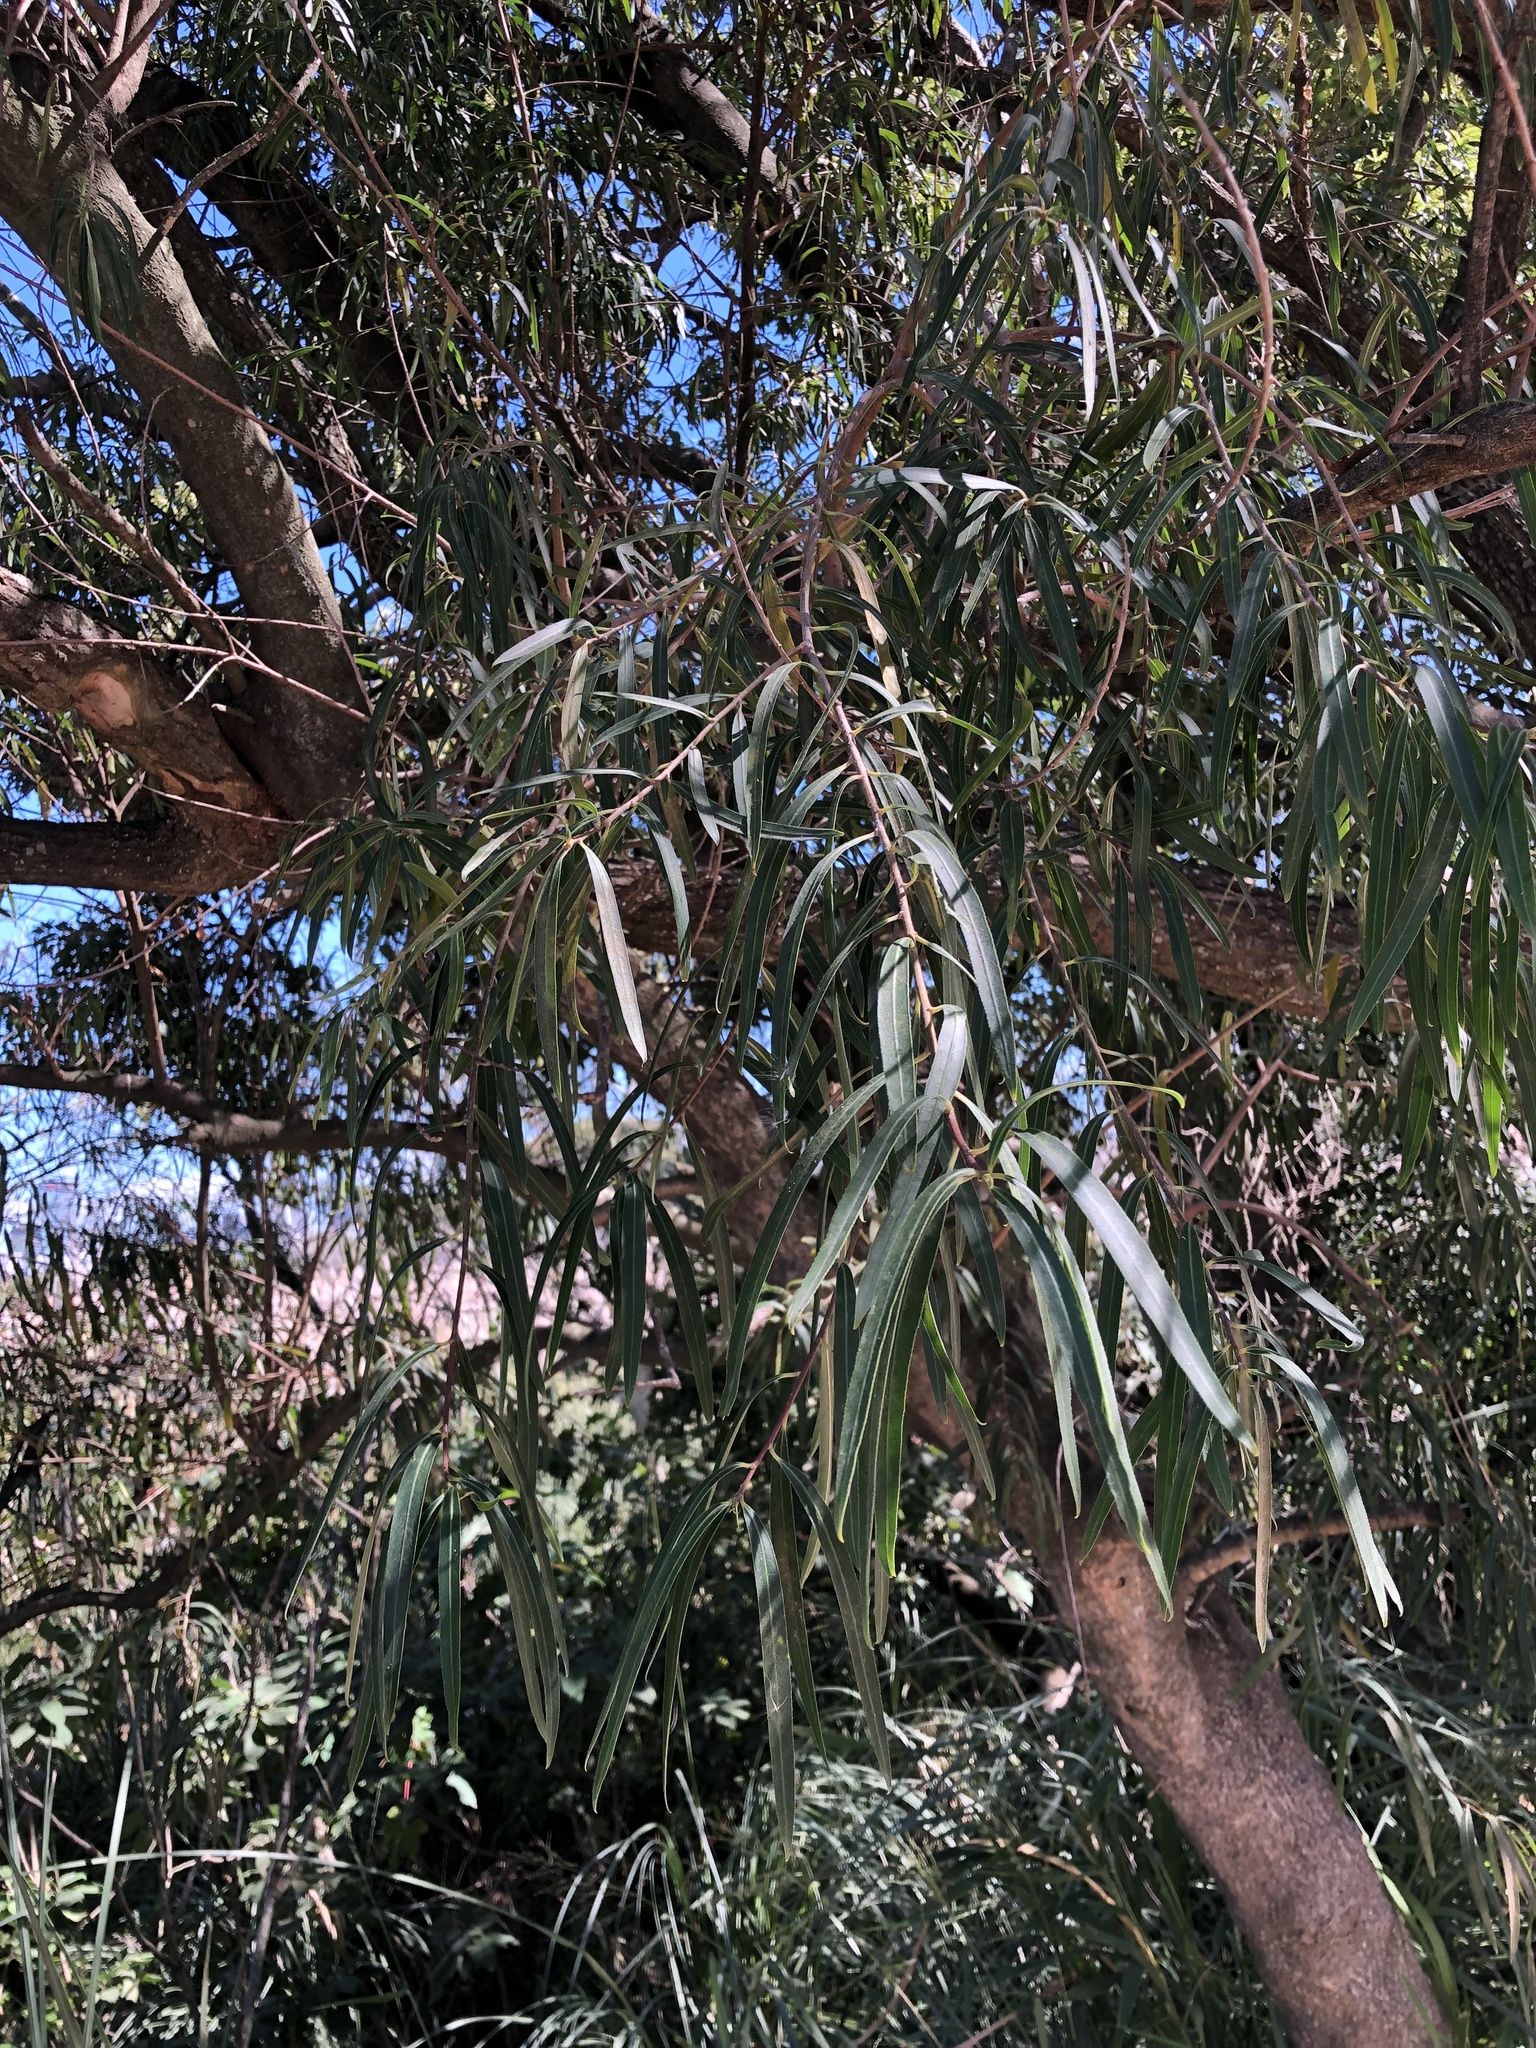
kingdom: Plantae
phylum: Tracheophyta
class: Magnoliopsida
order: Malpighiales
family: Euphorbiaceae
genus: Sapium
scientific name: Sapium haematospermum
